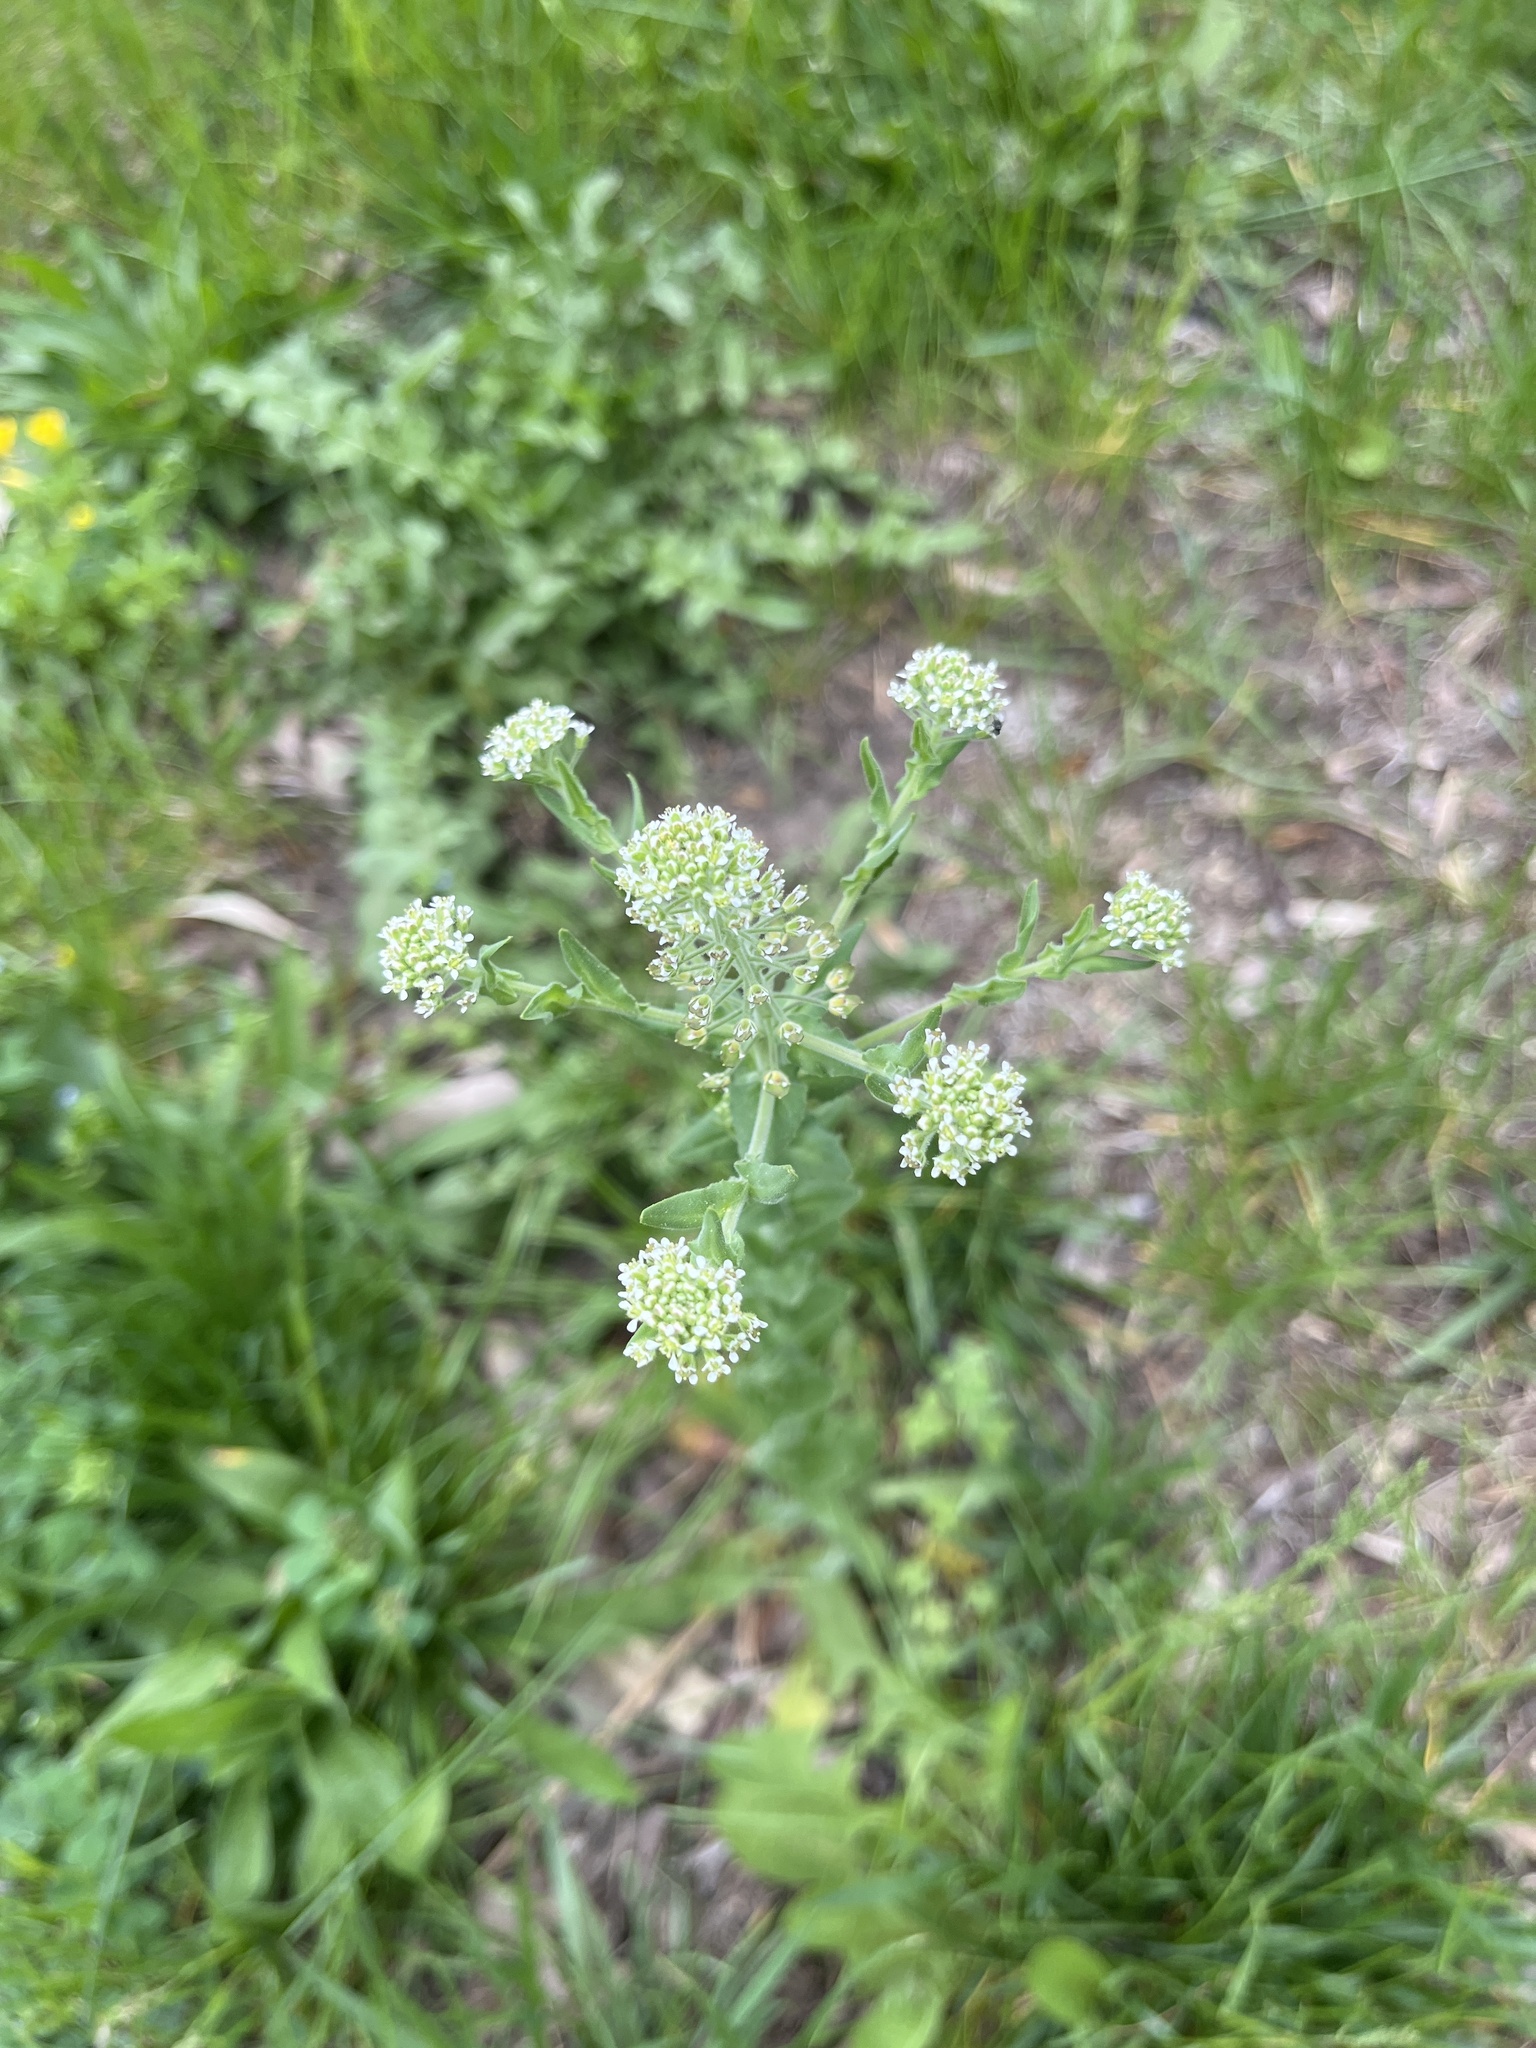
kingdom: Plantae
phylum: Tracheophyta
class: Magnoliopsida
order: Brassicales
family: Brassicaceae
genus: Lepidium
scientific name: Lepidium campestre
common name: Field pepperwort
